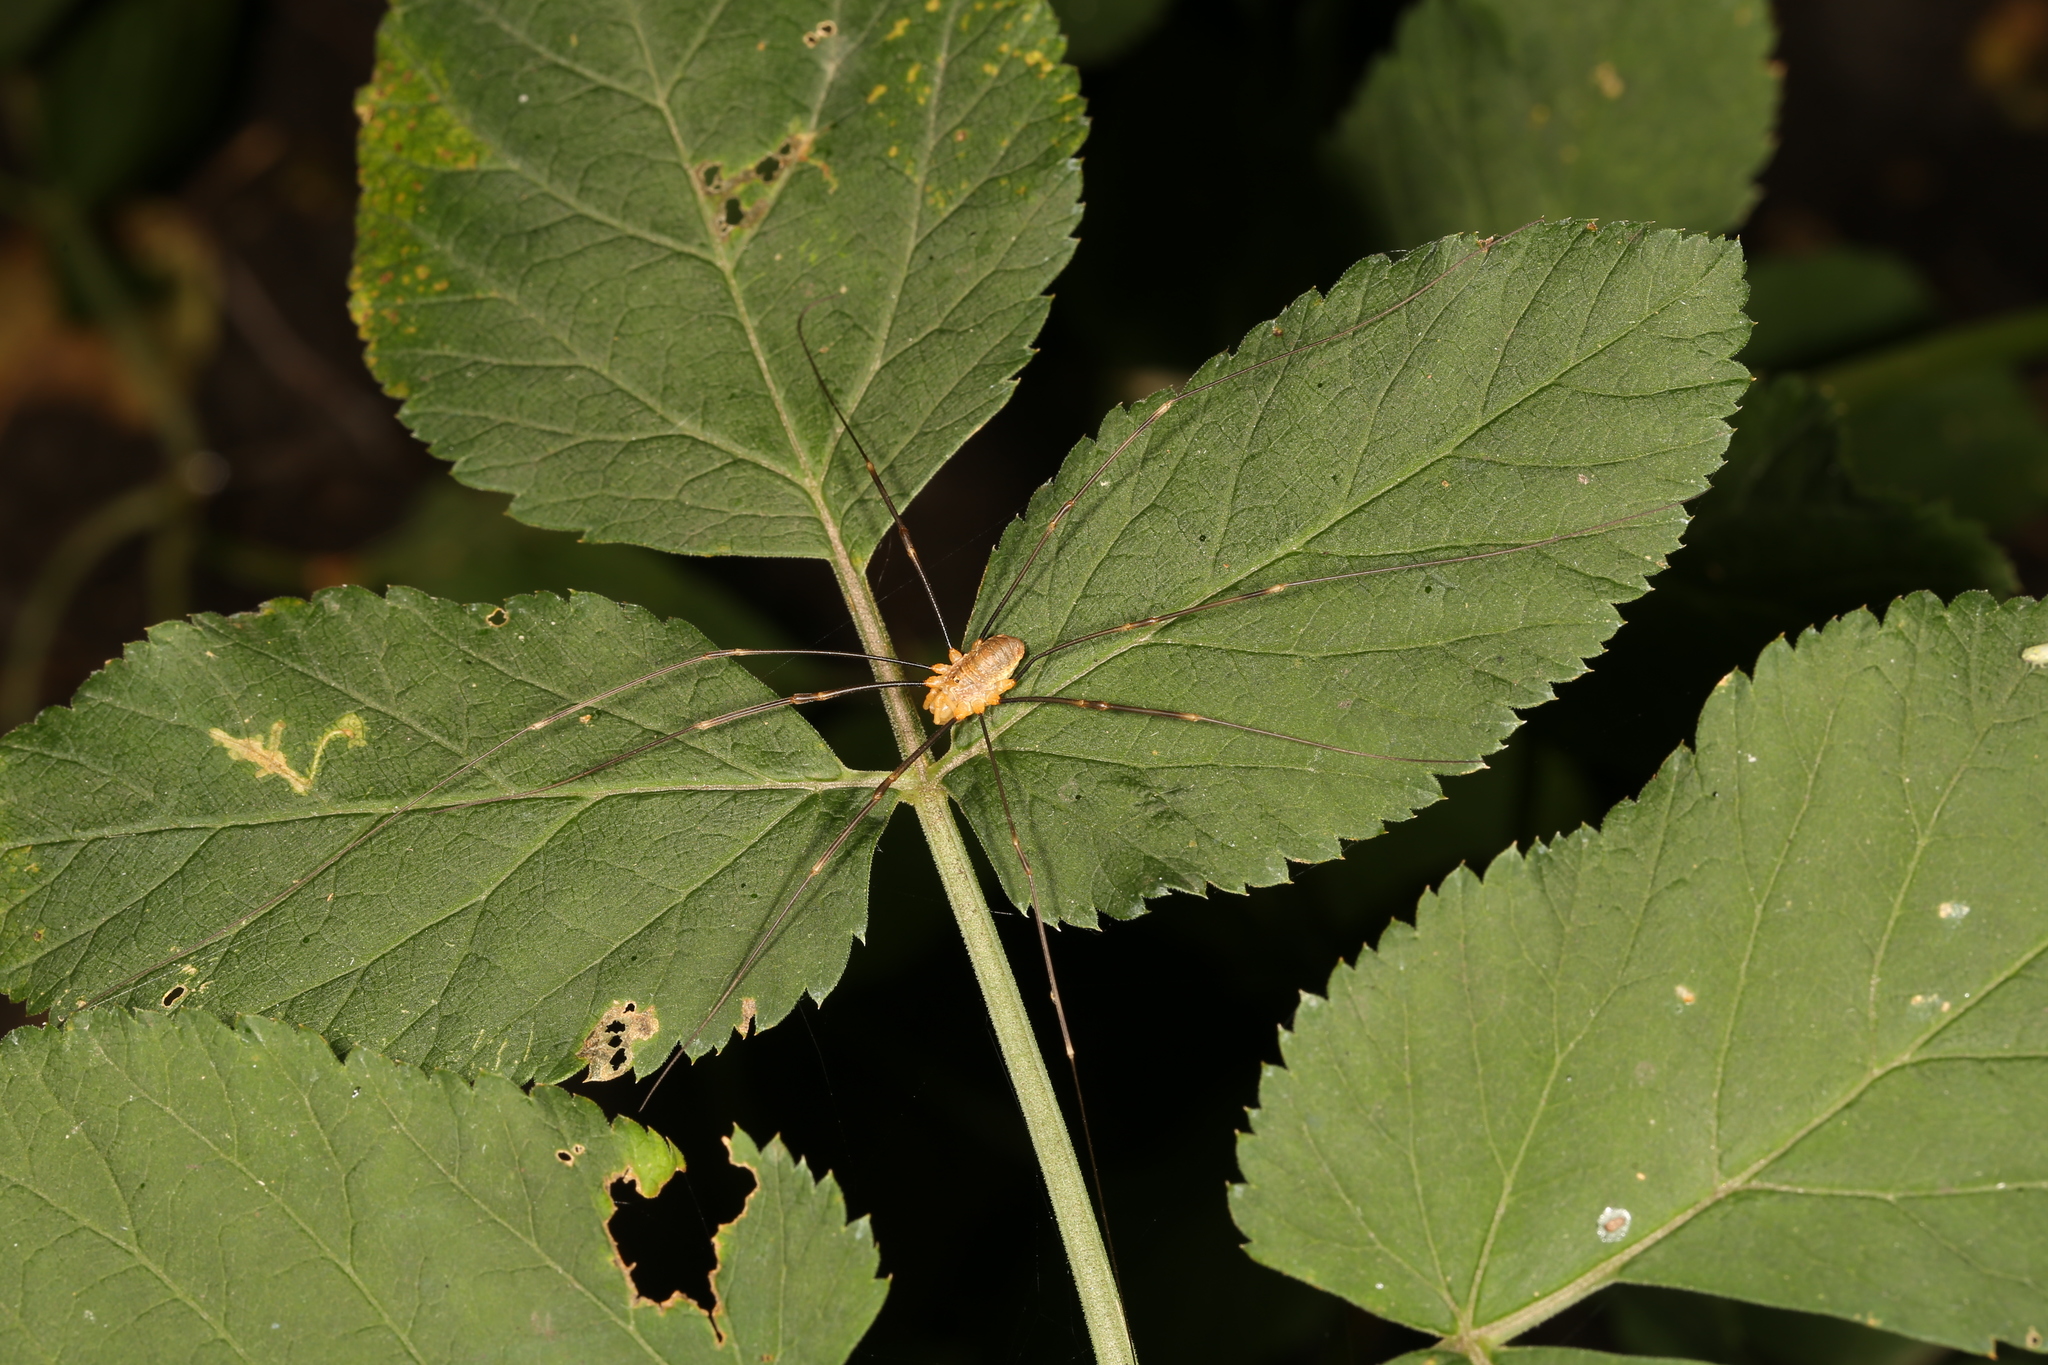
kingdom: Animalia
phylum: Arthropoda
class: Arachnida
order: Opiliones
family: Phalangiidae
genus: Opilio
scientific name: Opilio canestrinii
